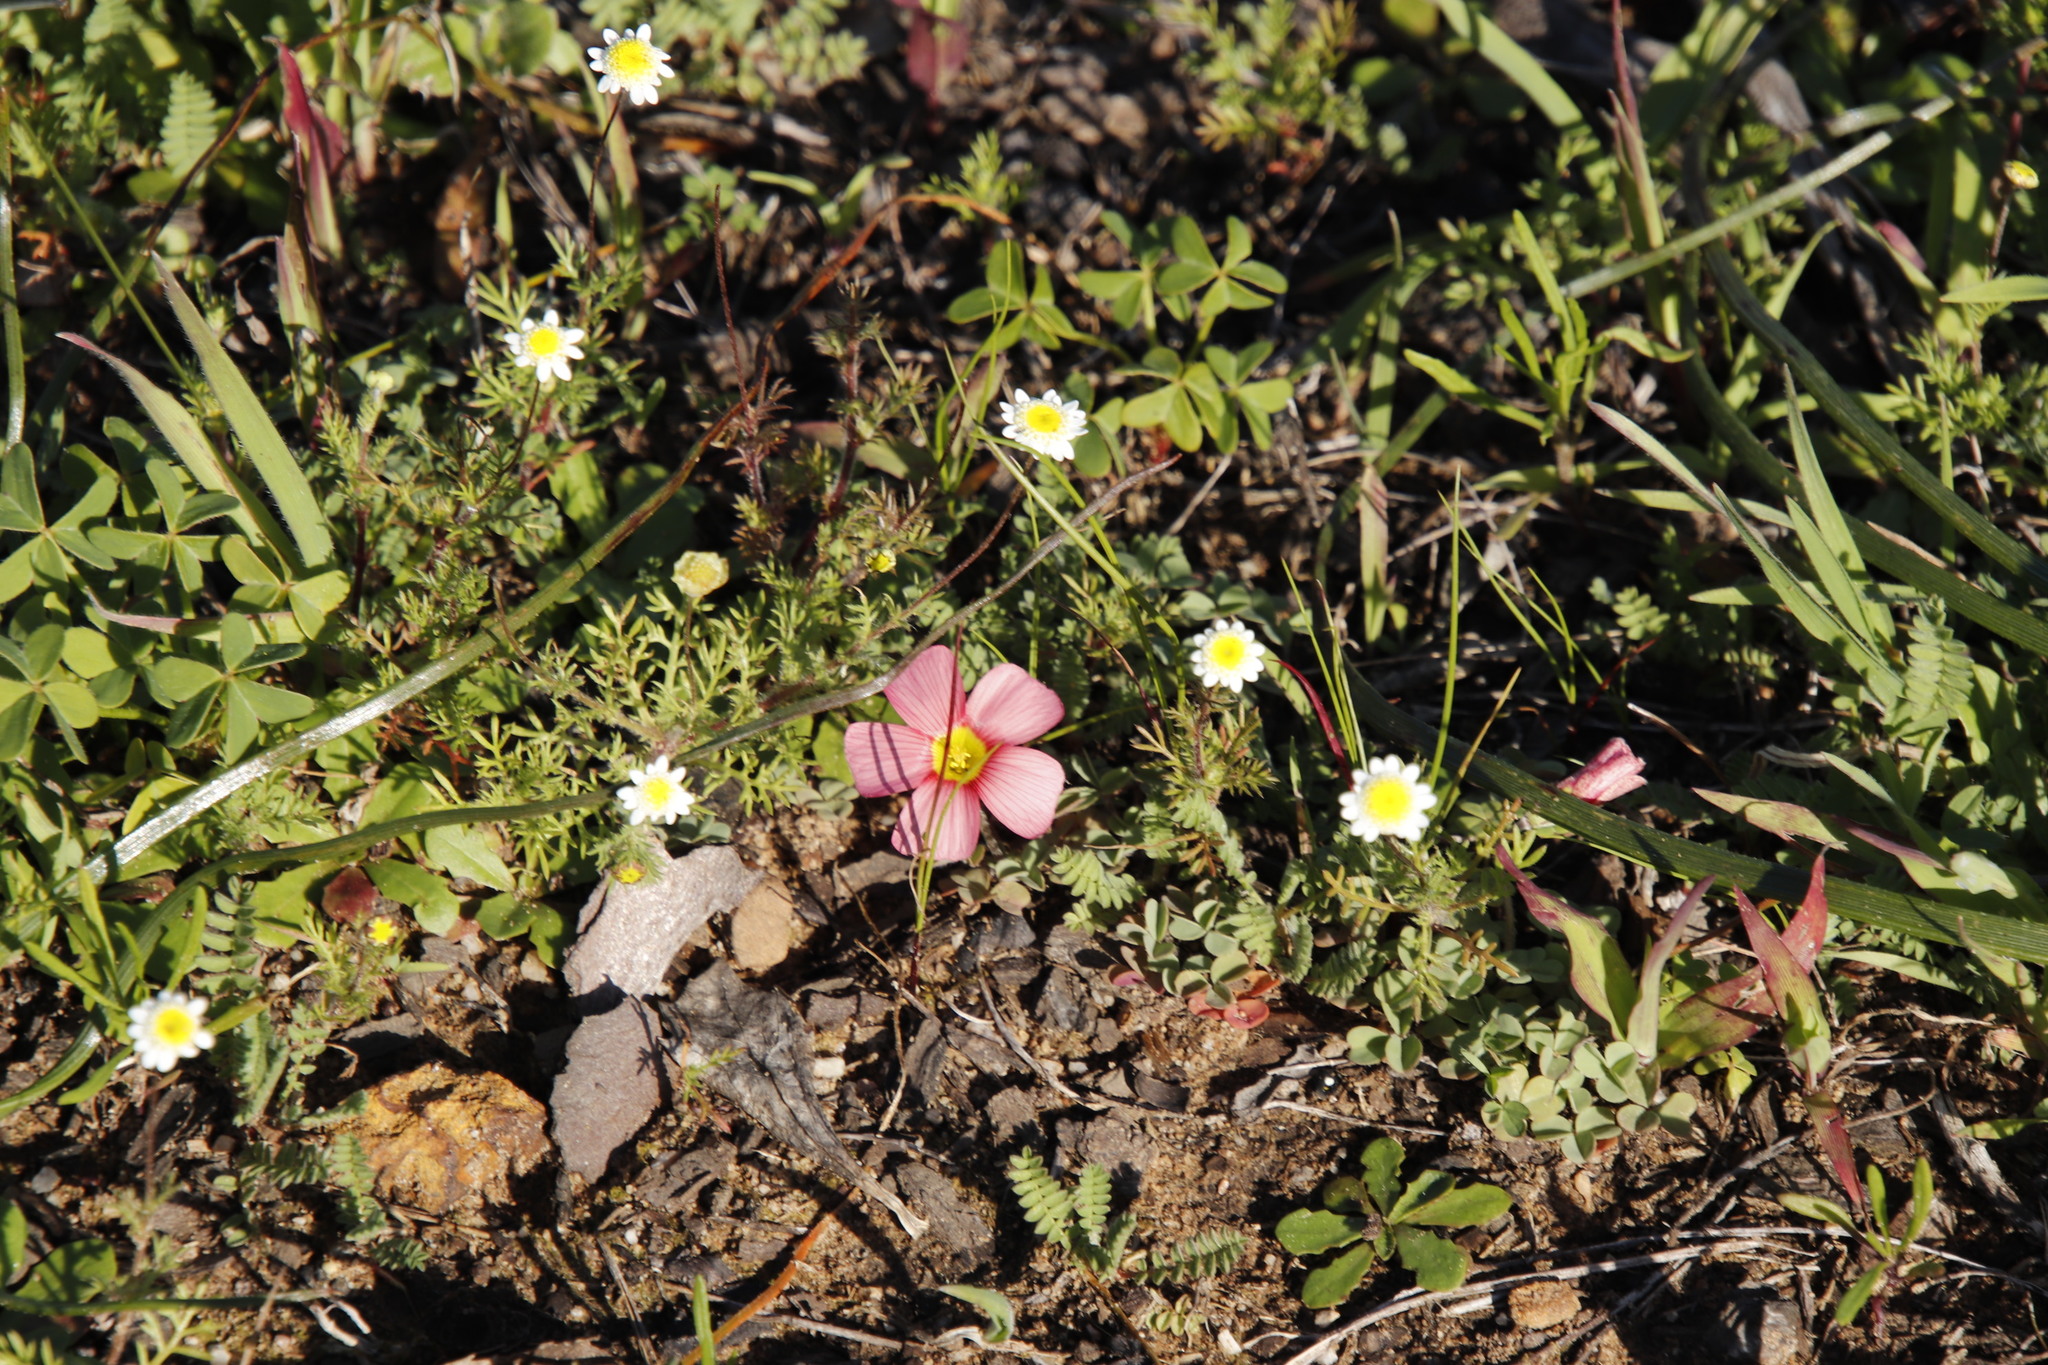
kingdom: Plantae
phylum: Tracheophyta
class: Magnoliopsida
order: Oxalidales
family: Oxalidaceae
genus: Oxalis
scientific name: Oxalis obtusa
